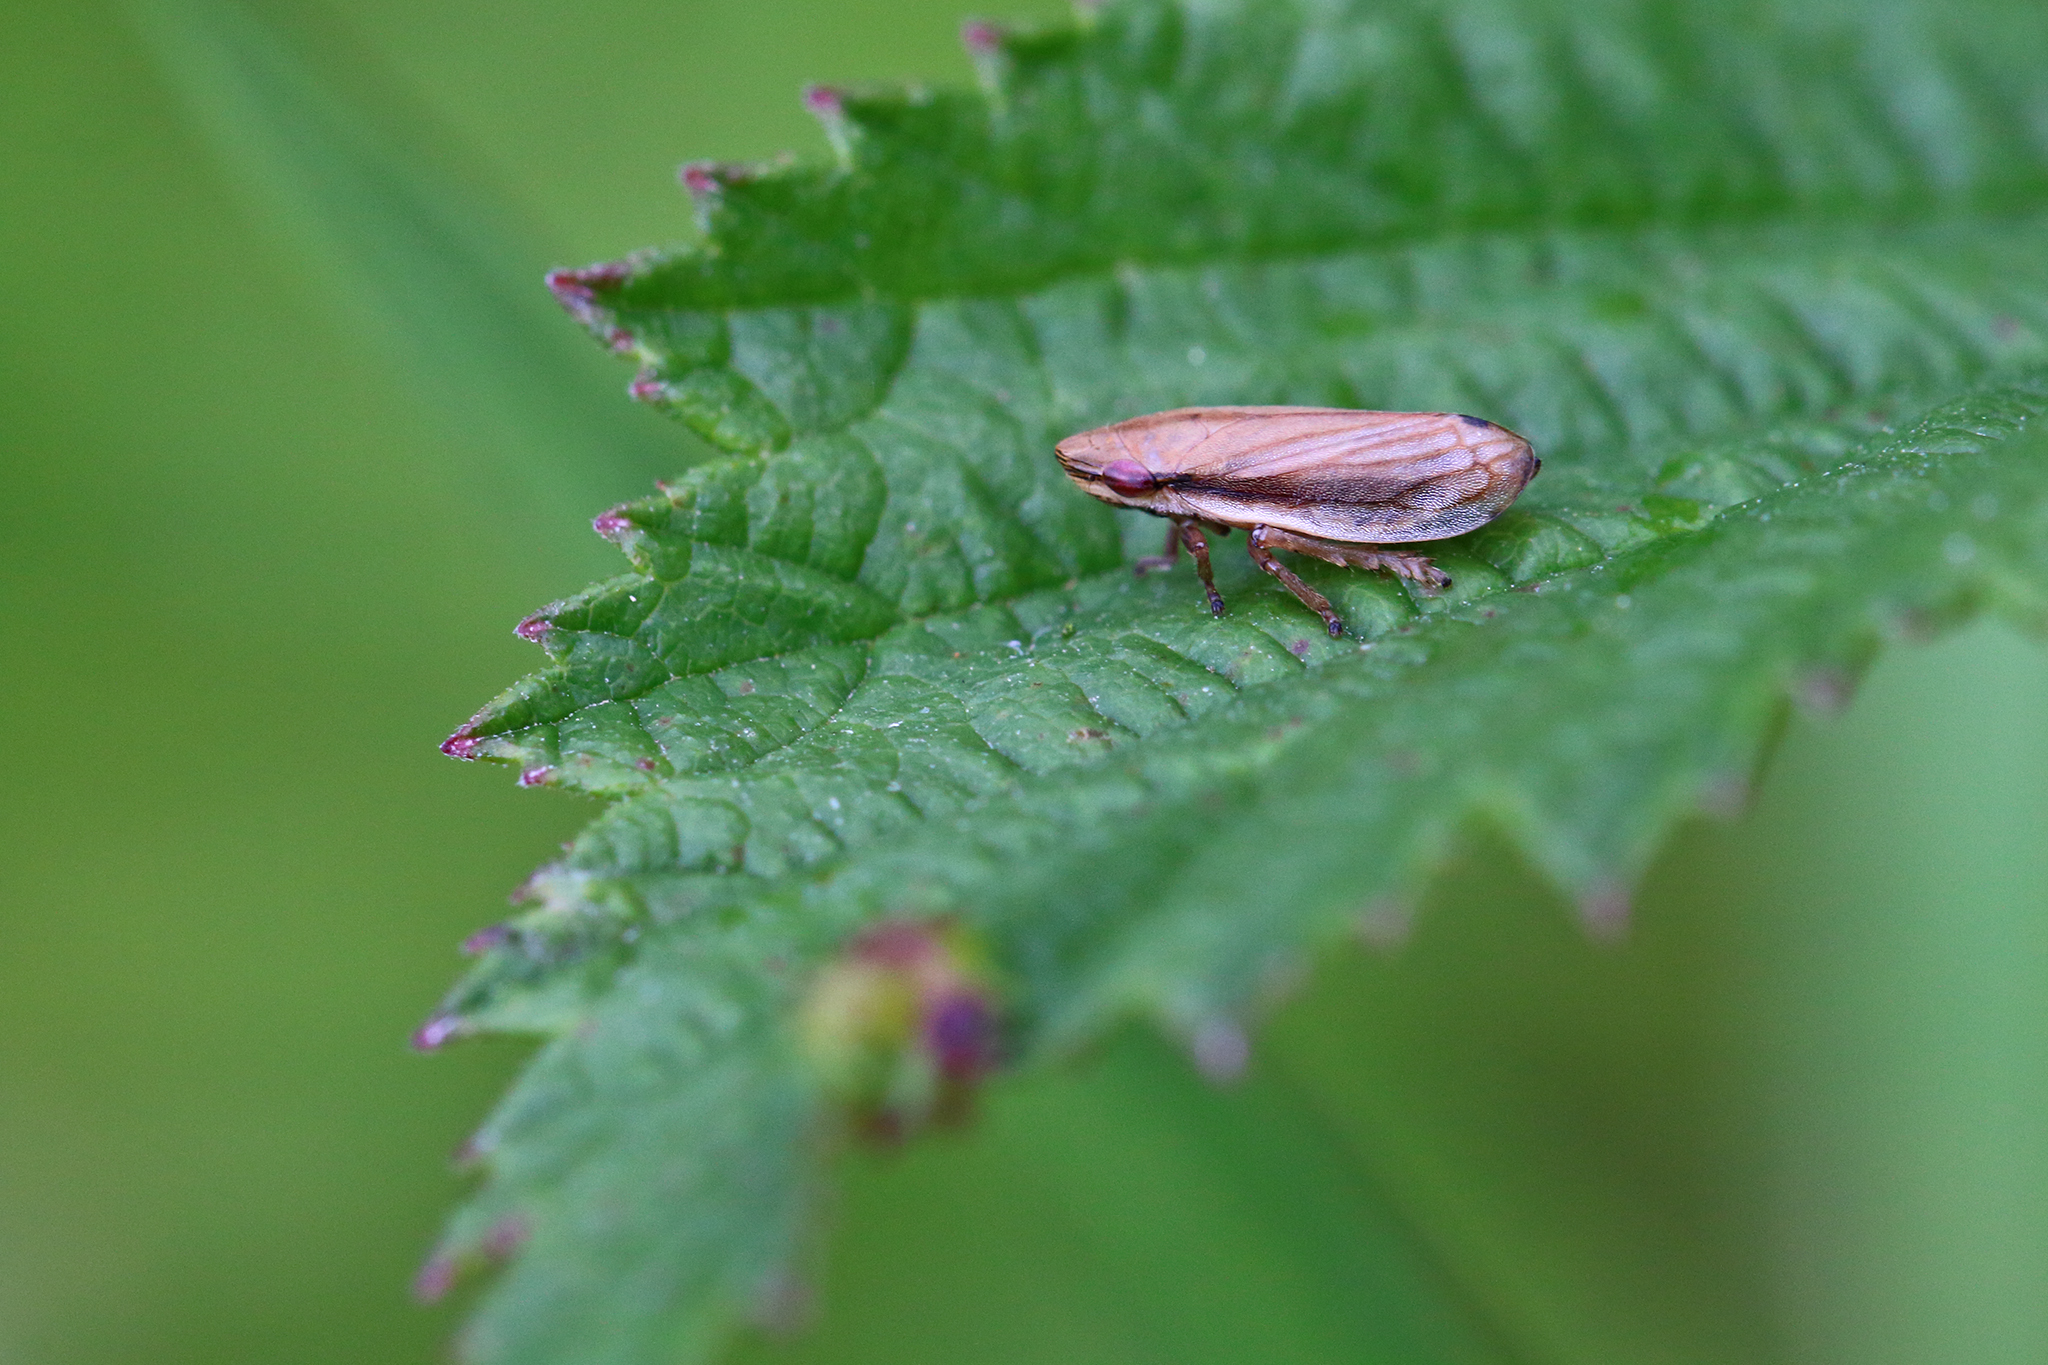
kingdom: Animalia
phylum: Arthropoda
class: Insecta
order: Hemiptera
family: Aphrophoridae
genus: Philaenus
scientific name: Philaenus spumarius
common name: Meadow spittlebug
